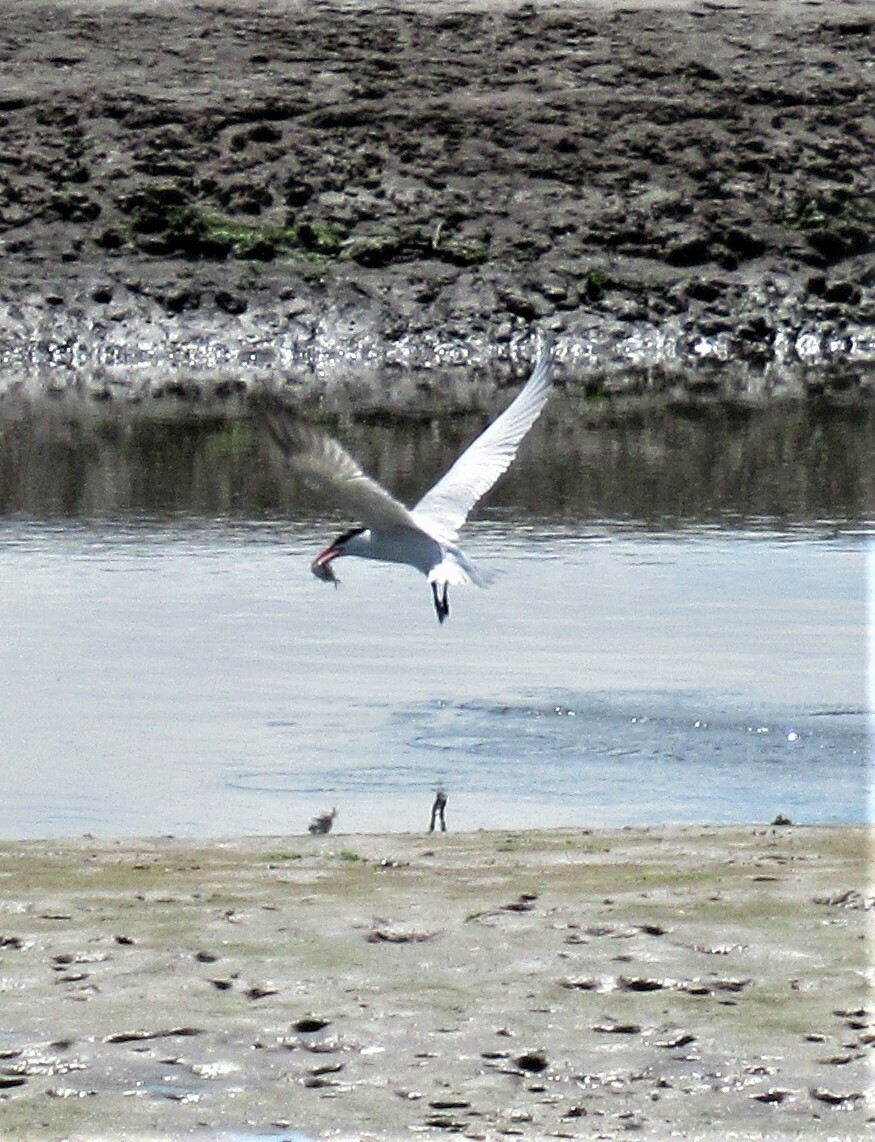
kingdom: Animalia
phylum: Chordata
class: Aves
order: Charadriiformes
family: Laridae
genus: Hydroprogne
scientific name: Hydroprogne caspia
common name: Caspian tern
